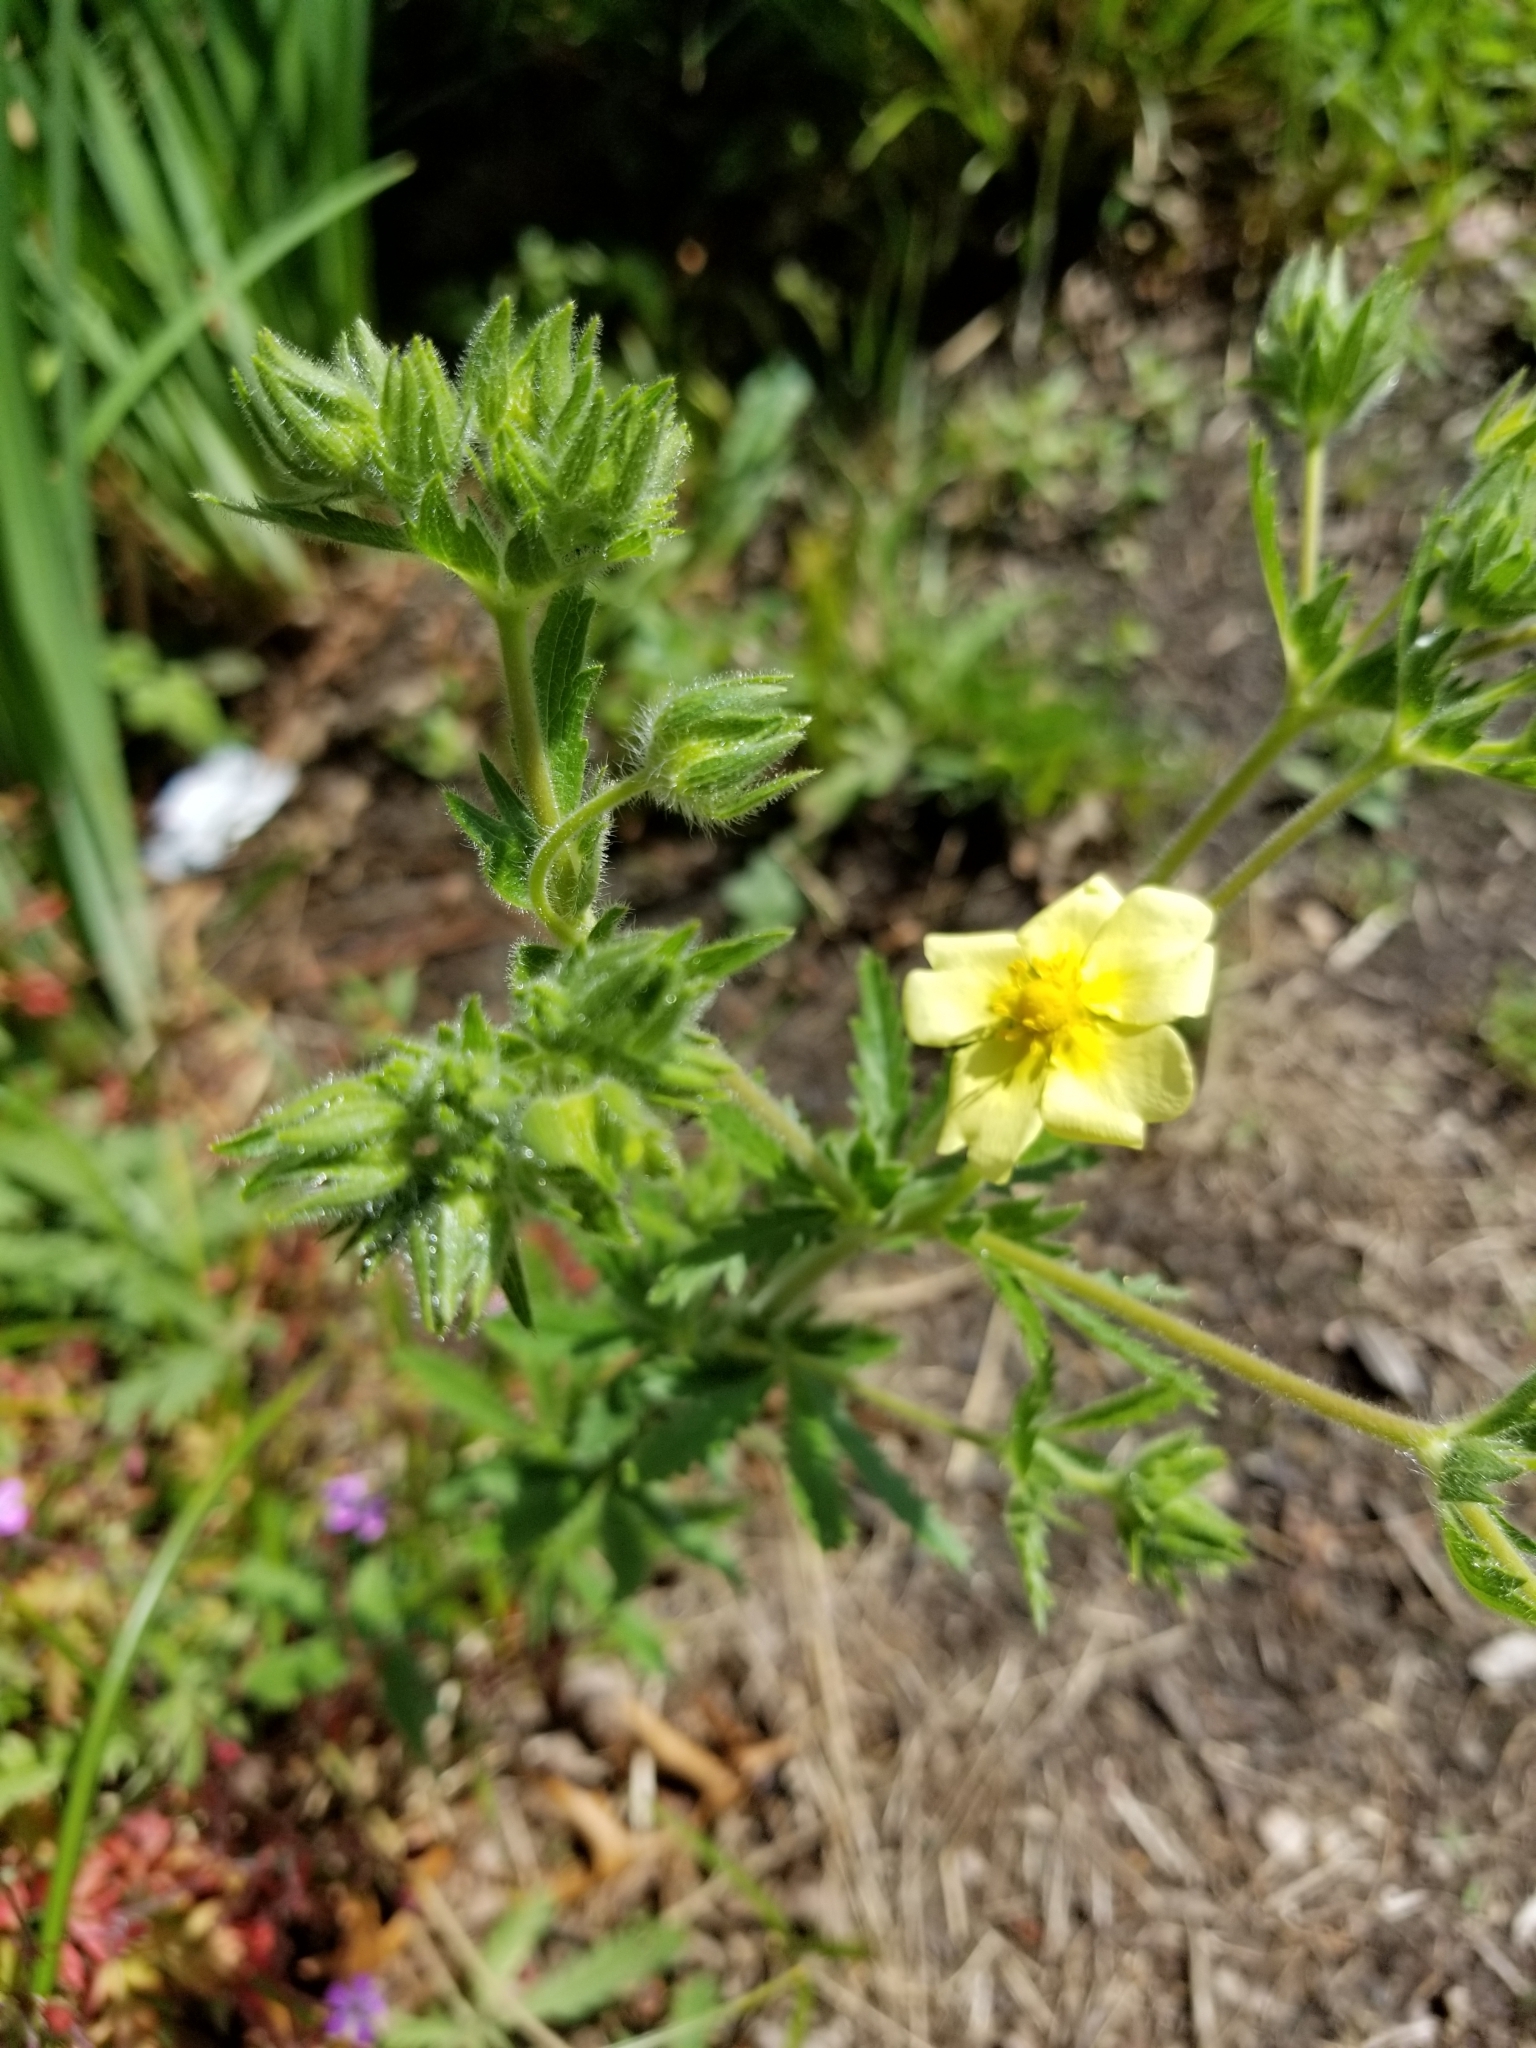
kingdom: Plantae
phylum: Tracheophyta
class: Magnoliopsida
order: Rosales
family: Rosaceae
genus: Potentilla
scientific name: Potentilla recta
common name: Sulphur cinquefoil
